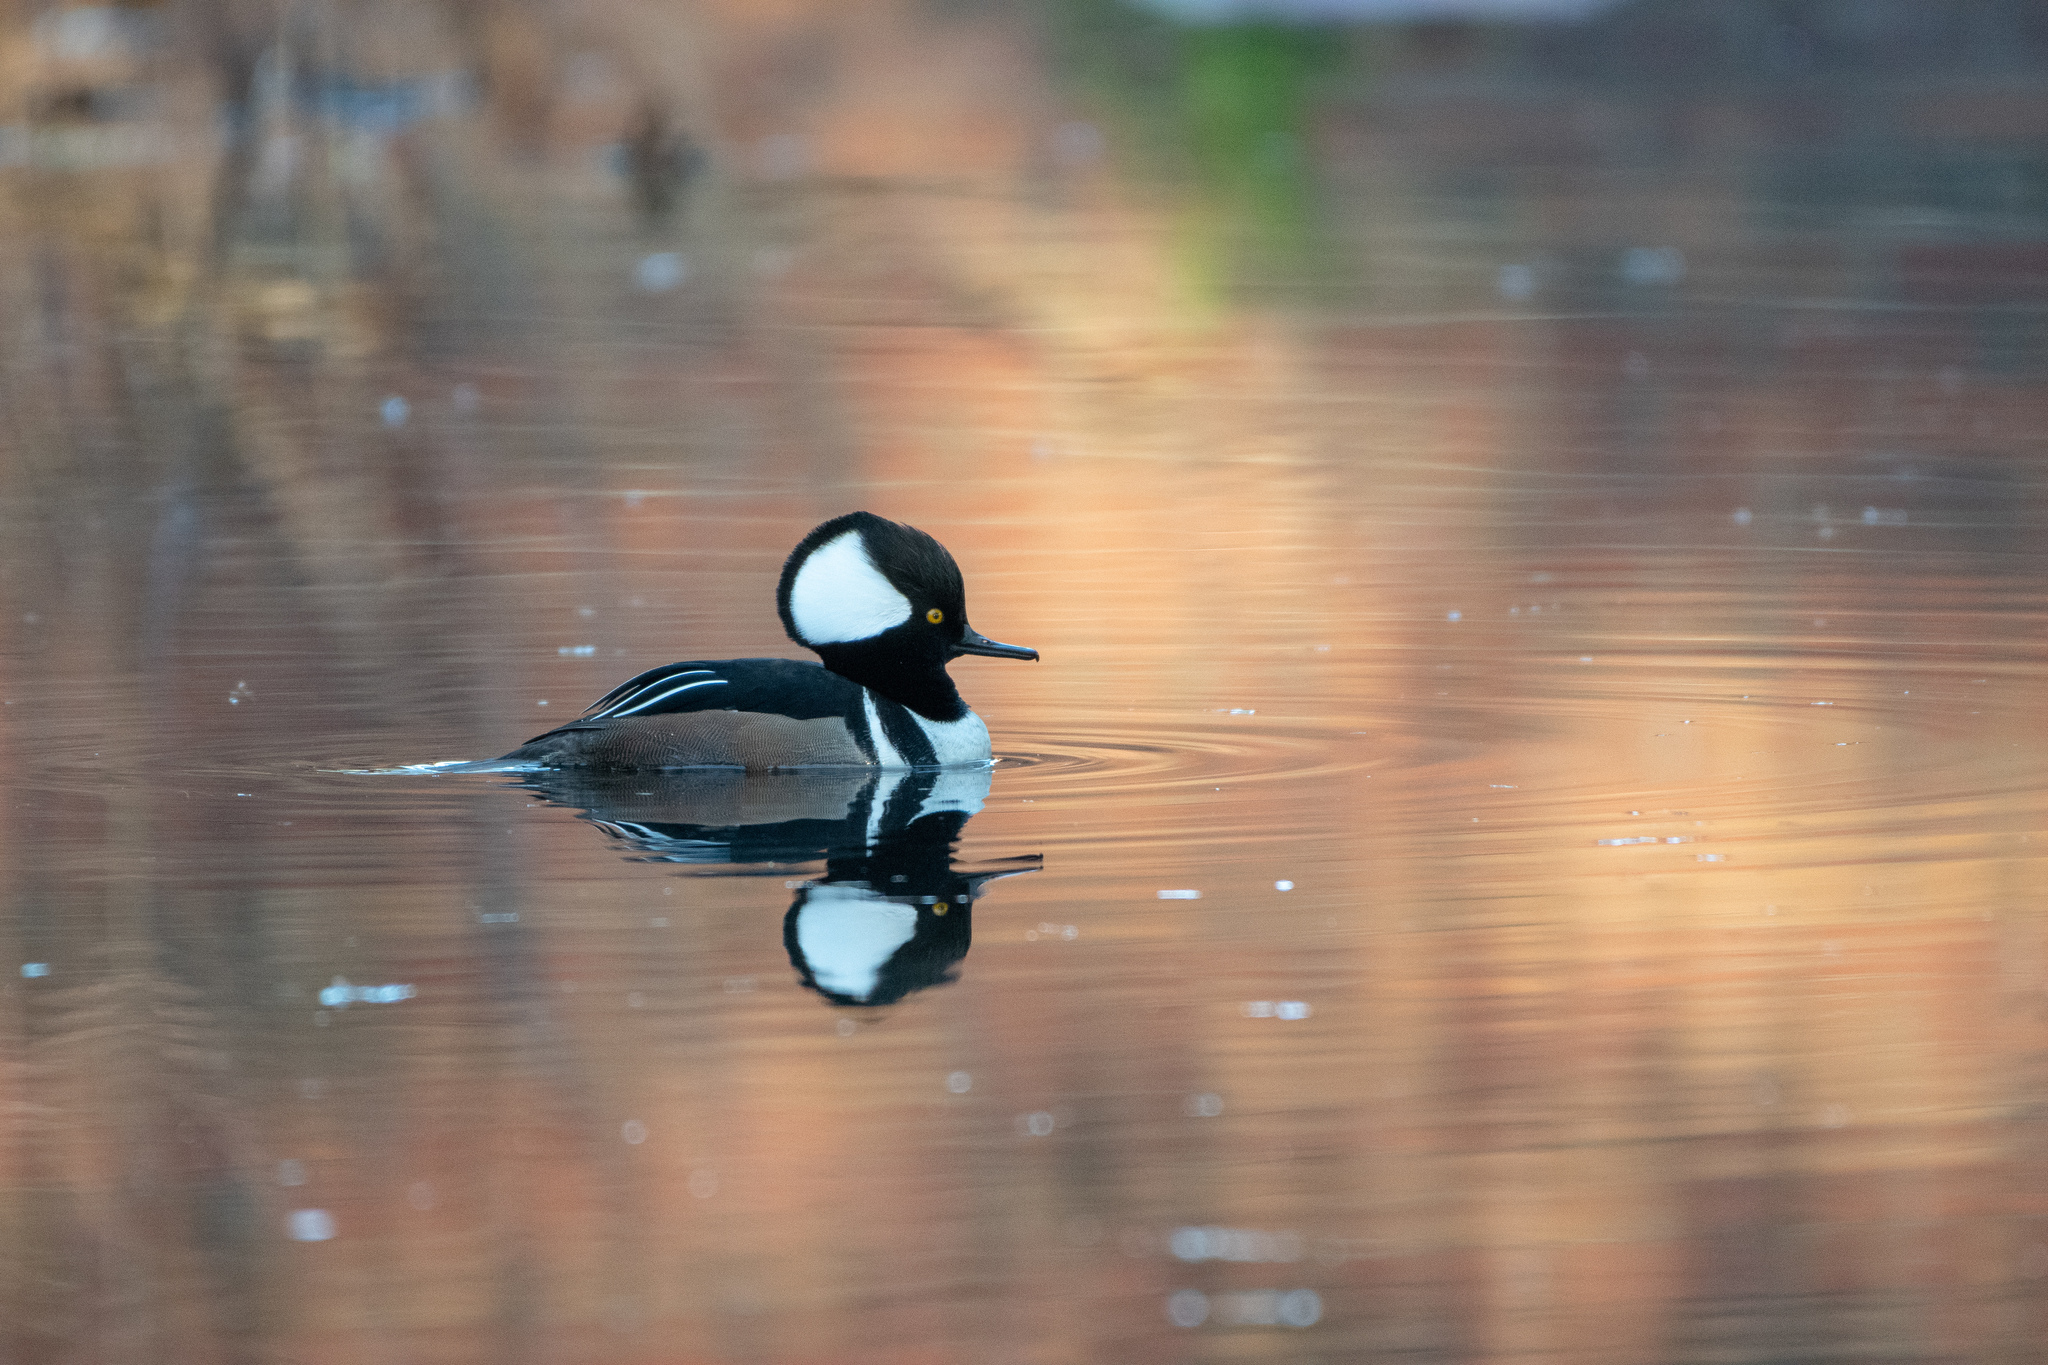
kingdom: Animalia
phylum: Chordata
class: Aves
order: Anseriformes
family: Anatidae
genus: Lophodytes
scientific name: Lophodytes cucullatus
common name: Hooded merganser
